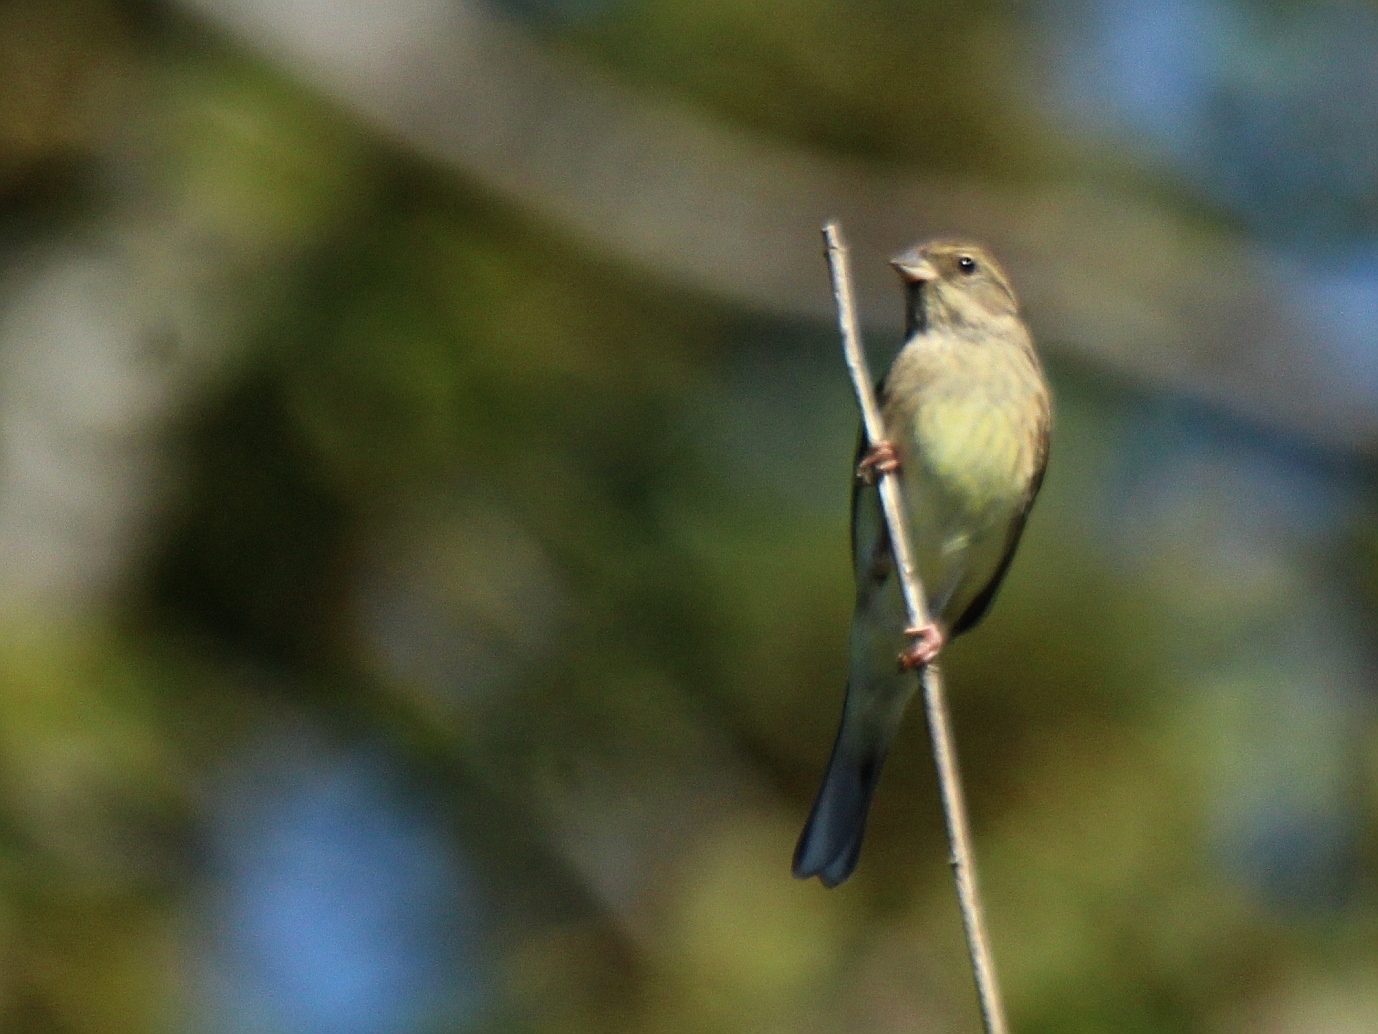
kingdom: Animalia
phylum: Chordata
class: Aves
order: Passeriformes
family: Emberizidae
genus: Emberiza
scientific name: Emberiza spodocephala
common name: Black-faced bunting
